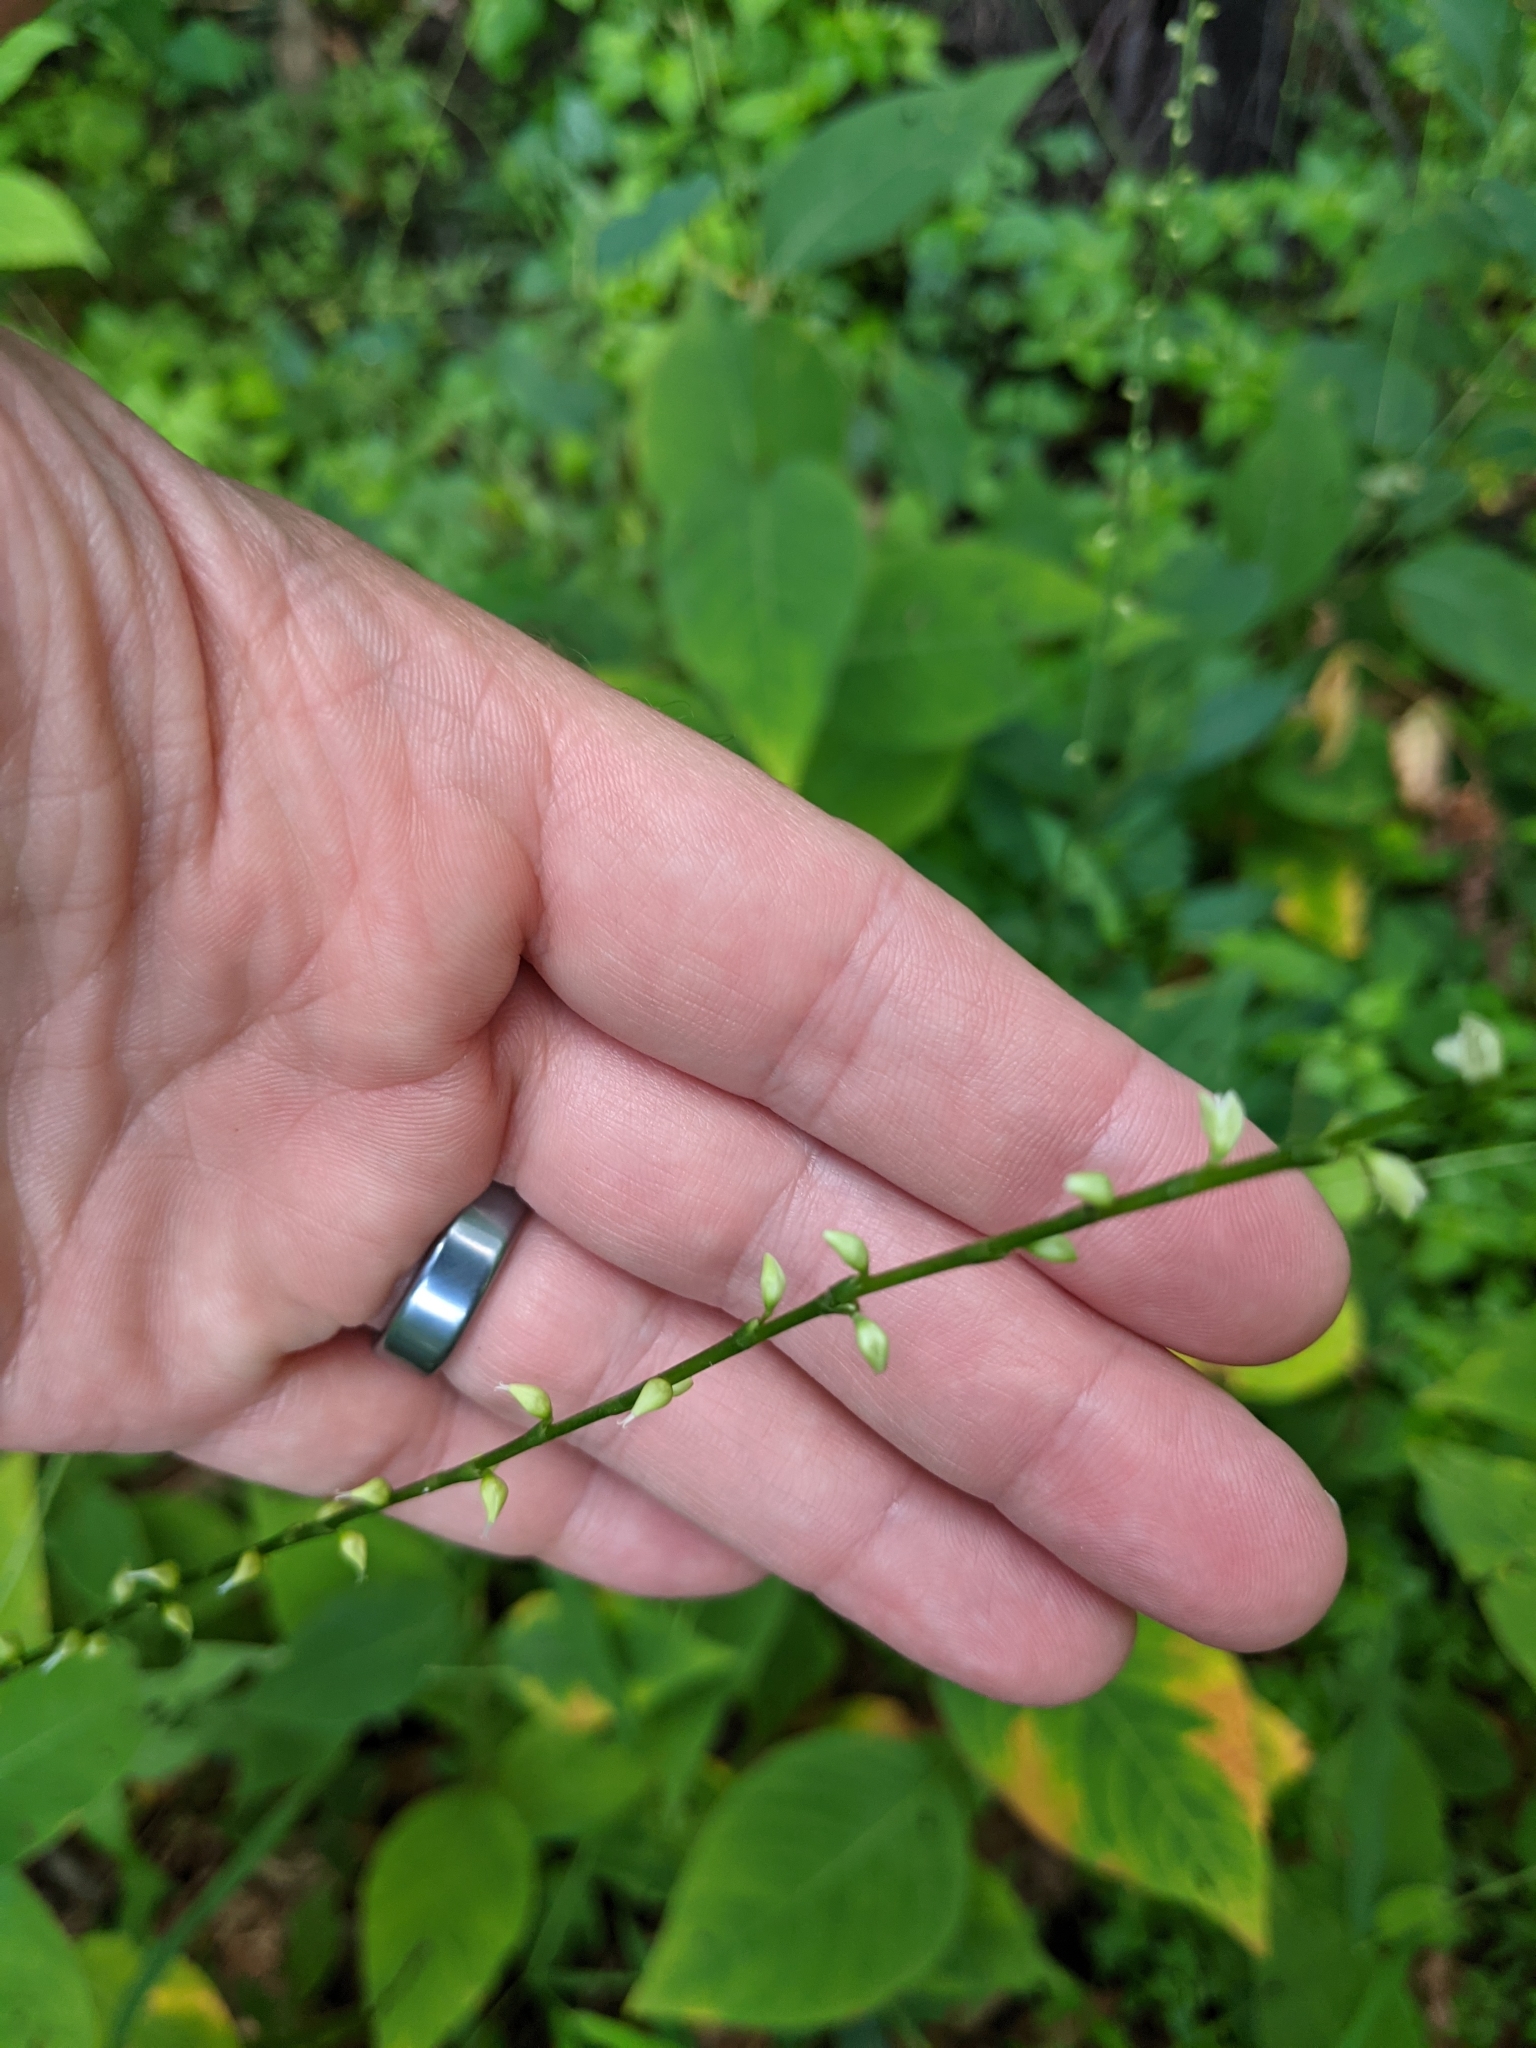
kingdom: Plantae
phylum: Tracheophyta
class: Magnoliopsida
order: Caryophyllales
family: Polygonaceae
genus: Persicaria
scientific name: Persicaria virginiana
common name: Jumpseed
